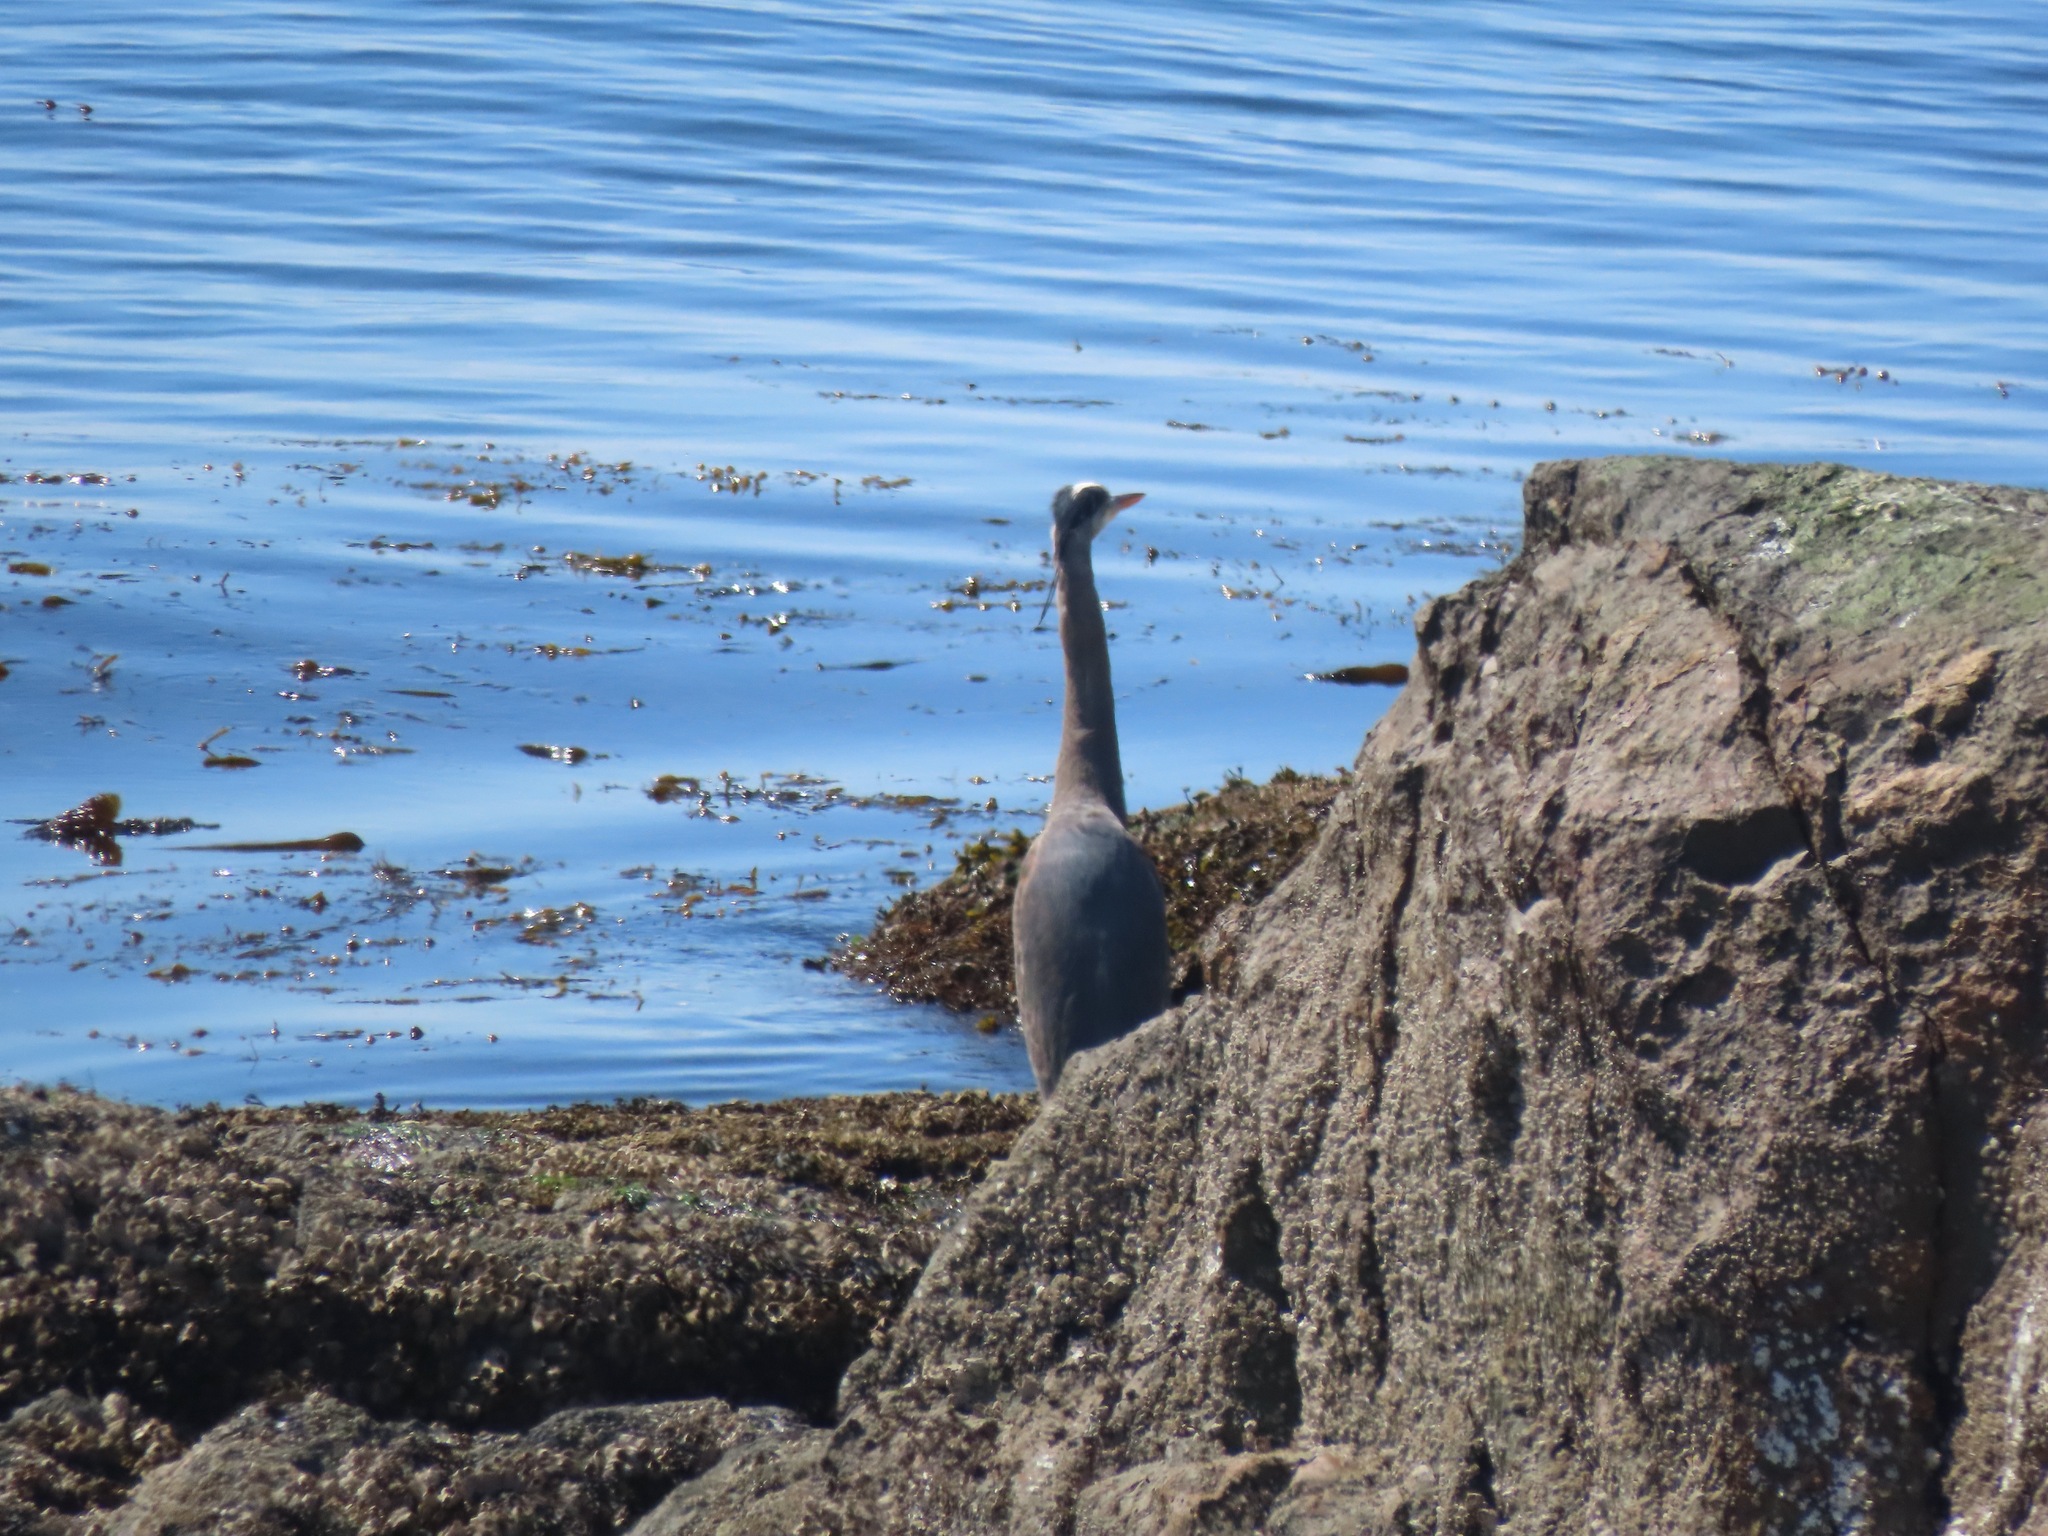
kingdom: Animalia
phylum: Chordata
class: Aves
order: Pelecaniformes
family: Ardeidae
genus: Ardea
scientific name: Ardea herodias
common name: Great blue heron
